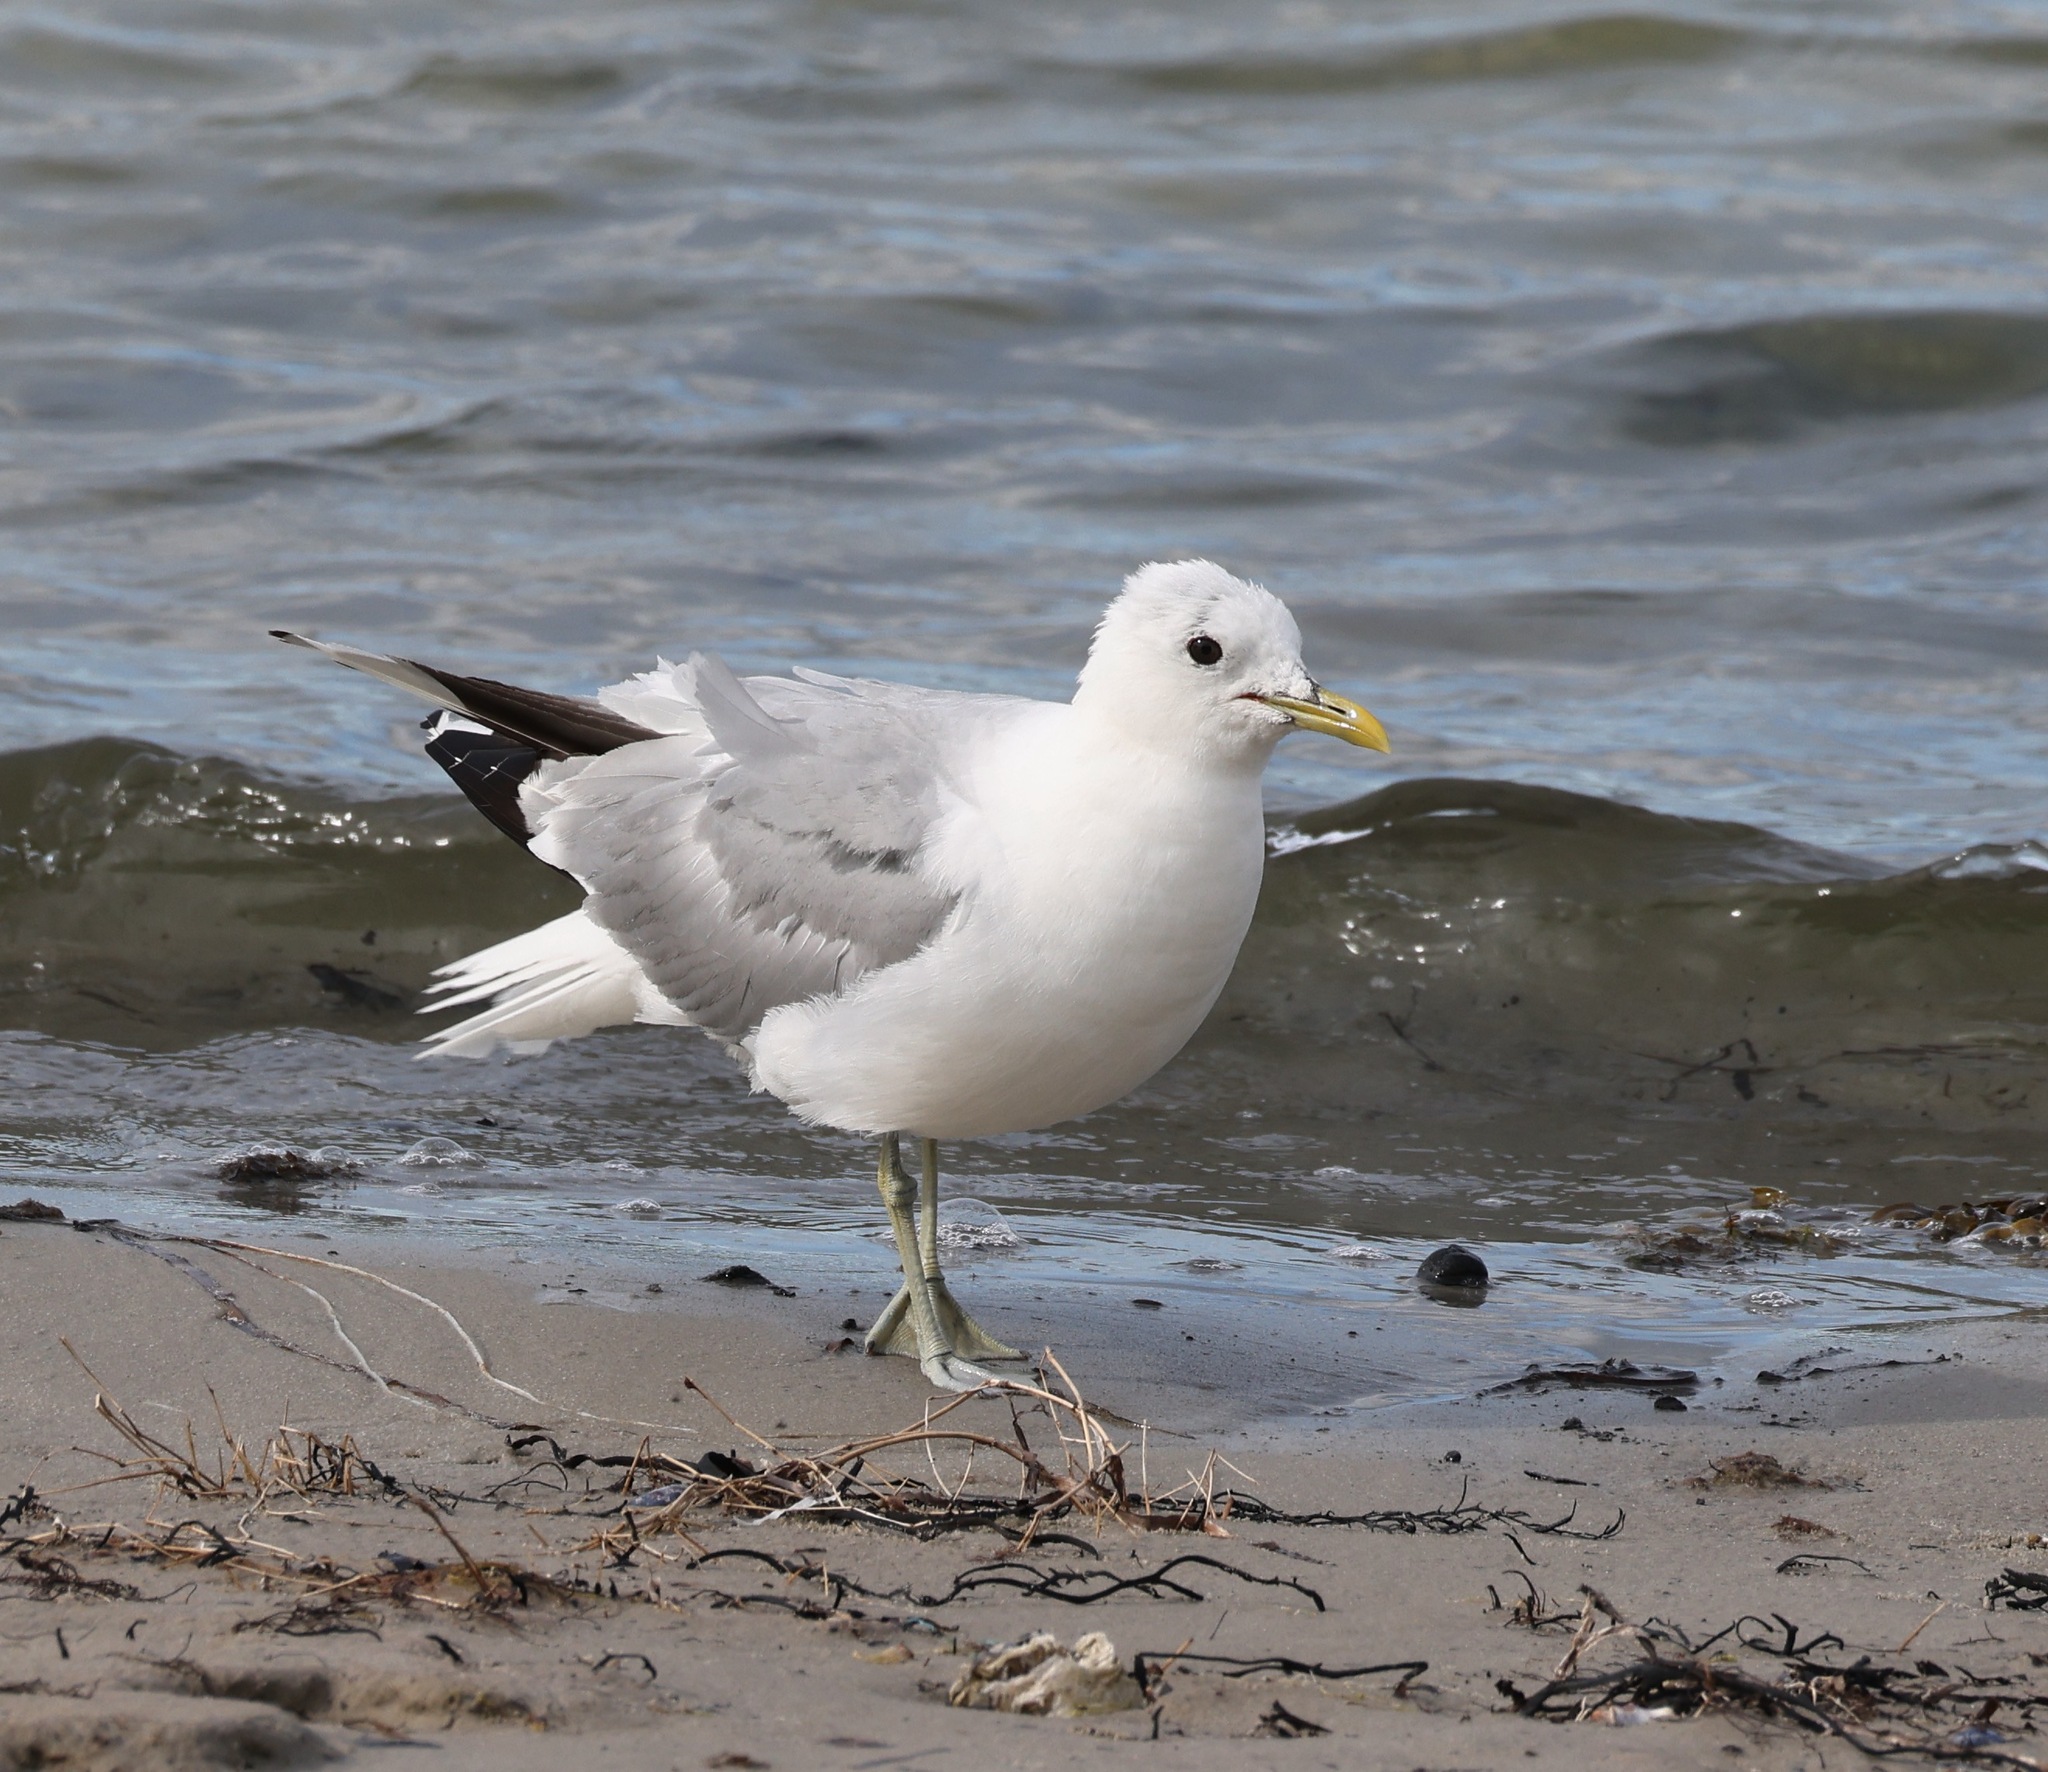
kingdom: Animalia
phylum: Chordata
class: Aves
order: Charadriiformes
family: Laridae
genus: Larus
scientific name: Larus canus
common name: Mew gull
